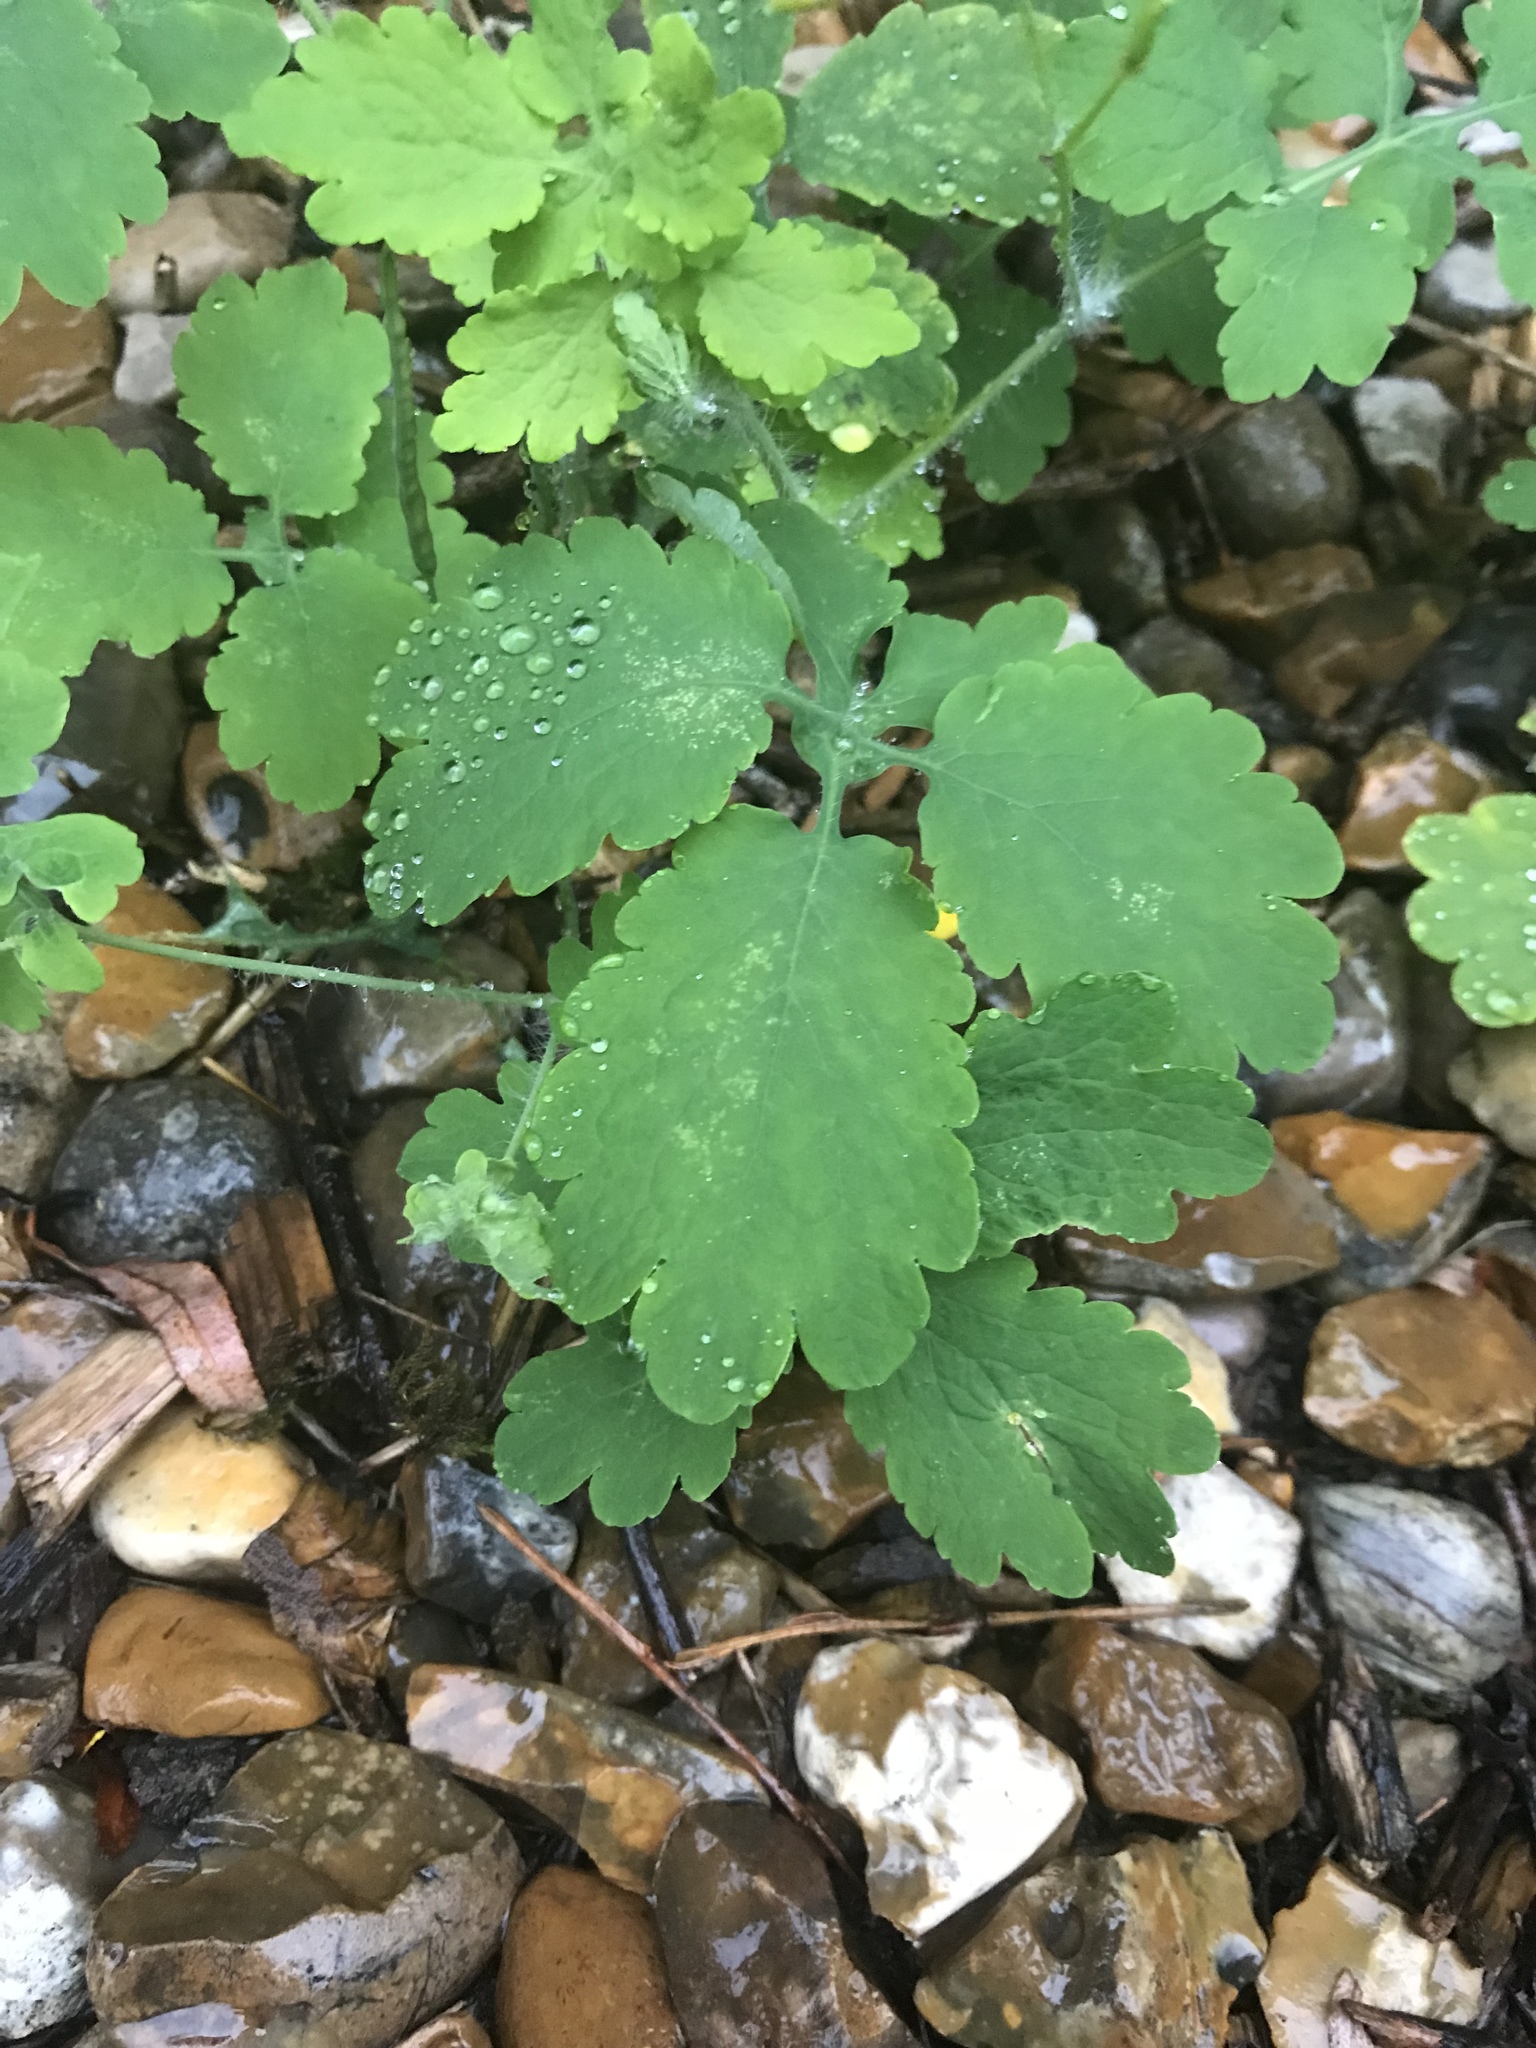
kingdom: Plantae
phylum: Tracheophyta
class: Magnoliopsida
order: Ranunculales
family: Papaveraceae
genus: Chelidonium
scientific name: Chelidonium majus
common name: Greater celandine
